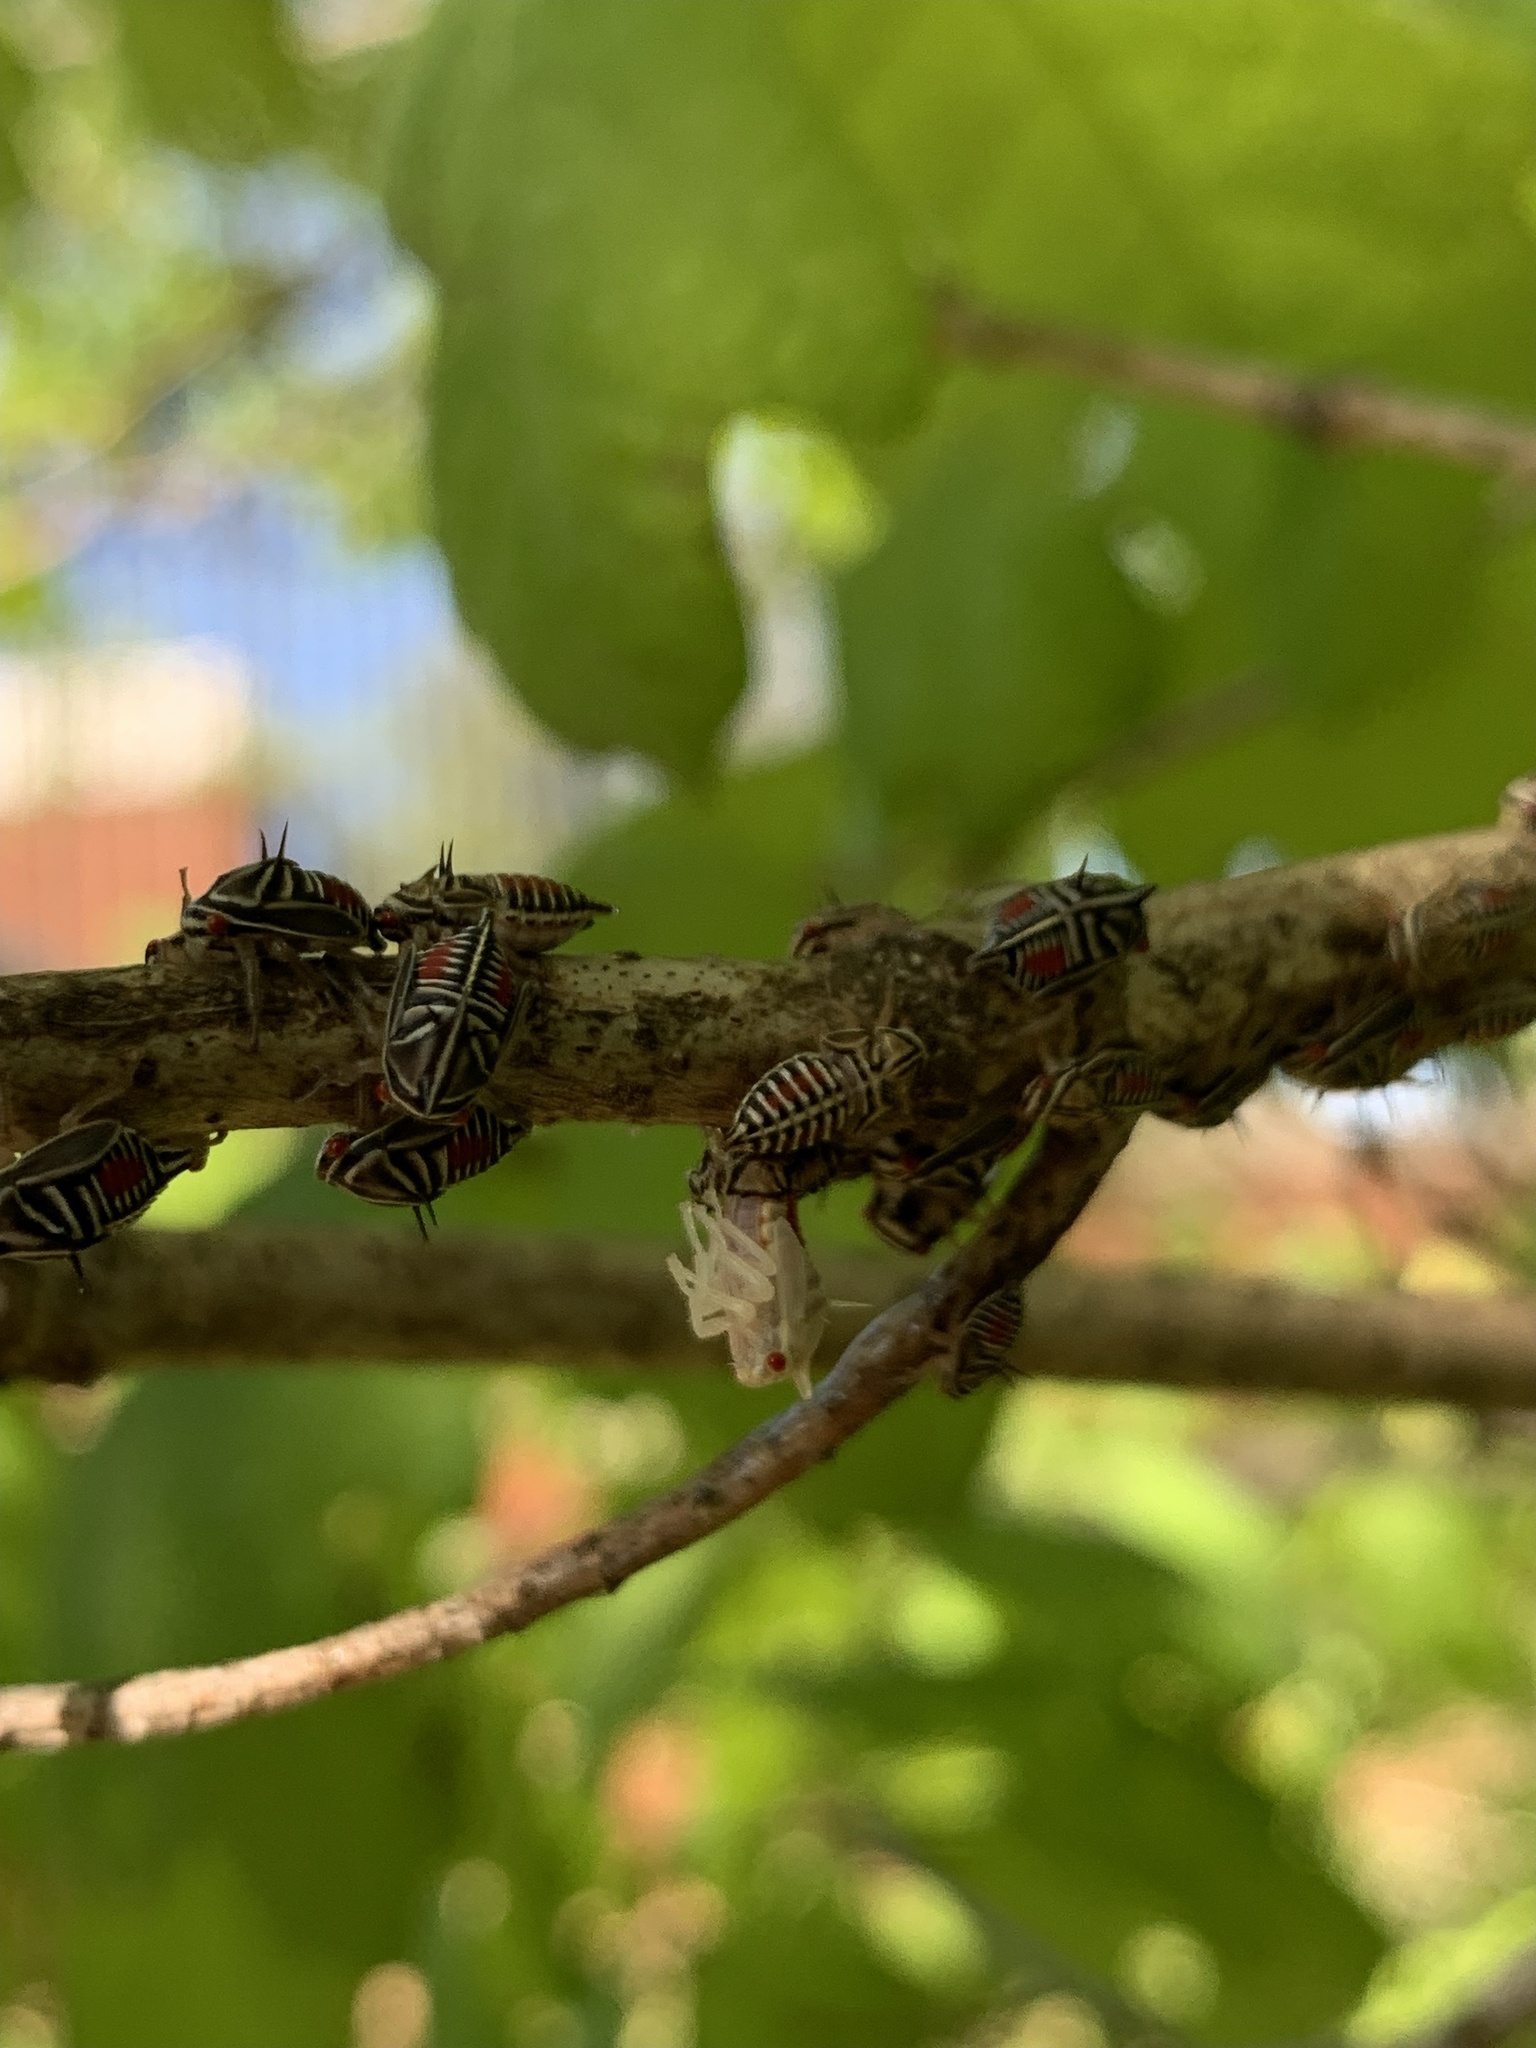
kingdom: Animalia
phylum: Arthropoda
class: Insecta
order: Hemiptera
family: Membracidae
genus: Platycotis
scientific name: Platycotis vittatus
